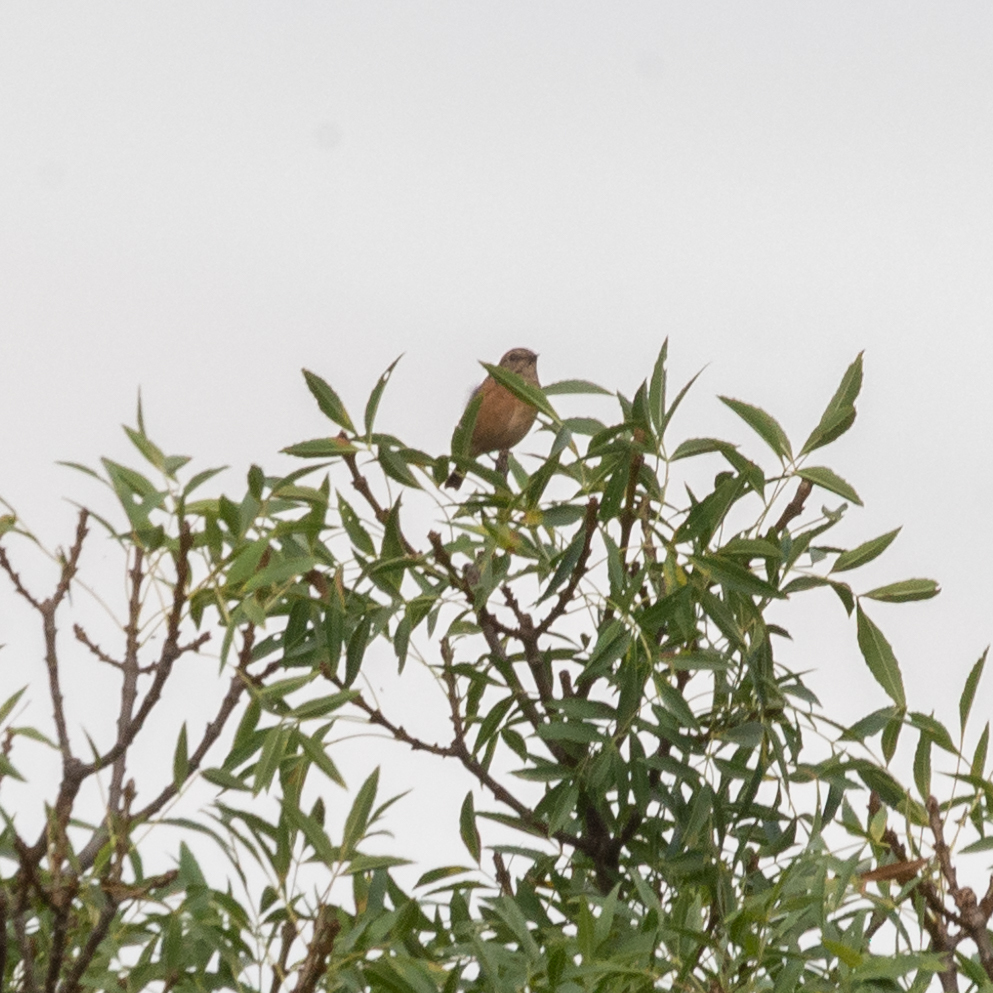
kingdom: Animalia
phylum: Chordata
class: Aves
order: Passeriformes
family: Muscicapidae
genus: Saxicola
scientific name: Saxicola rubicola
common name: European stonechat
